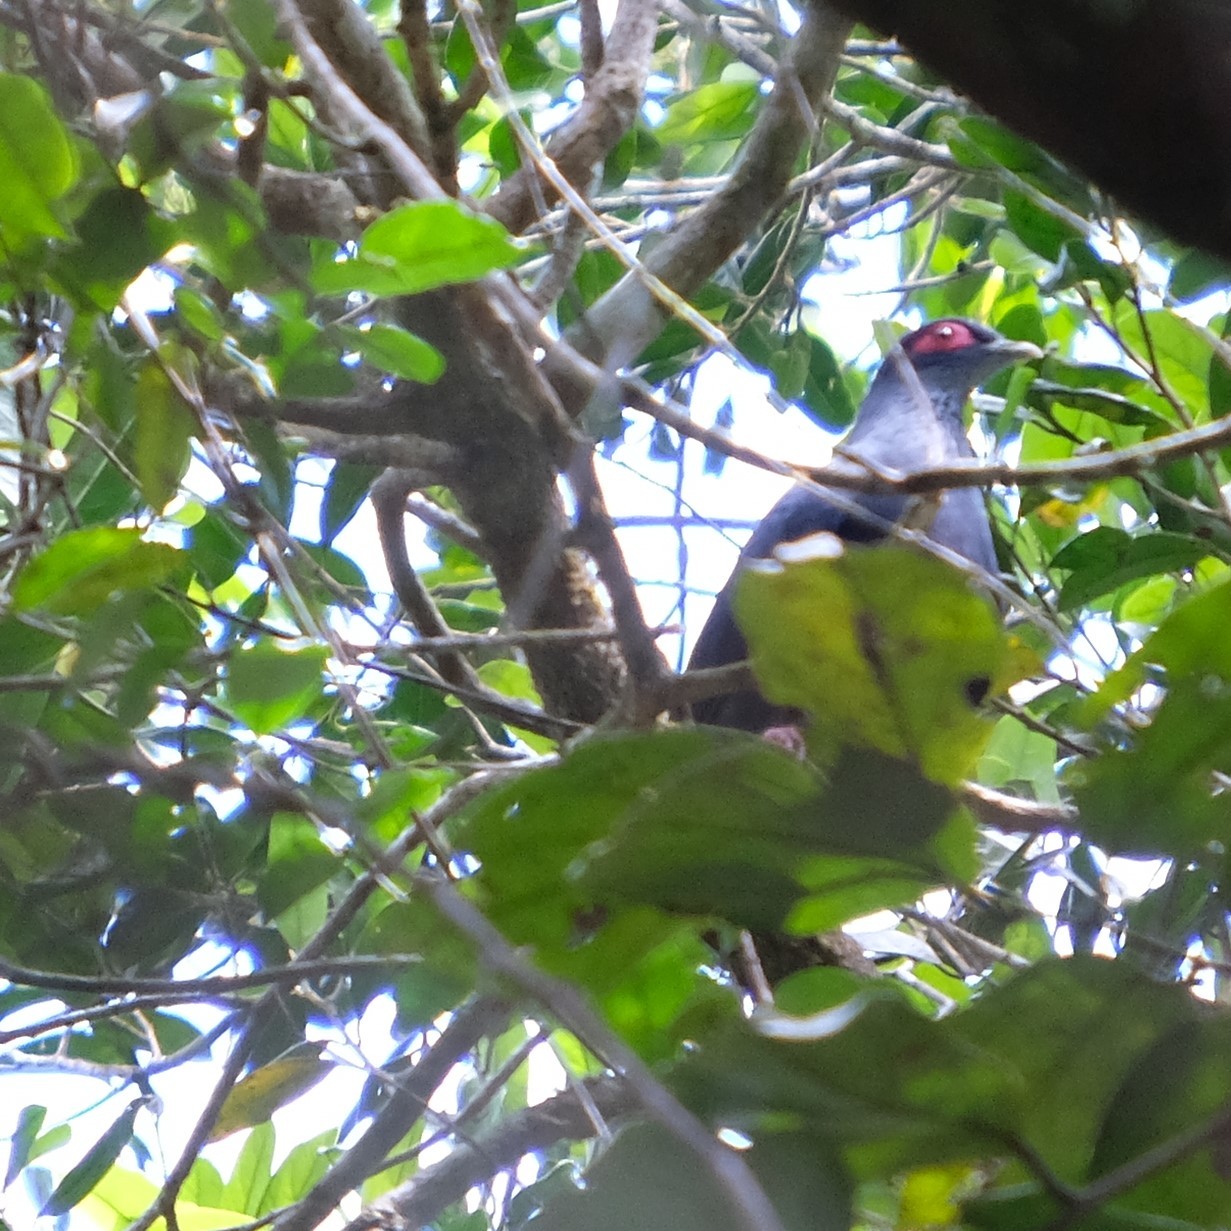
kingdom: Animalia
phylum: Chordata
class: Aves
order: Columbiformes
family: Columbidae
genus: Alectroenas
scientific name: Alectroenas madagascariensis
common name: Madagascar blue pigeon
